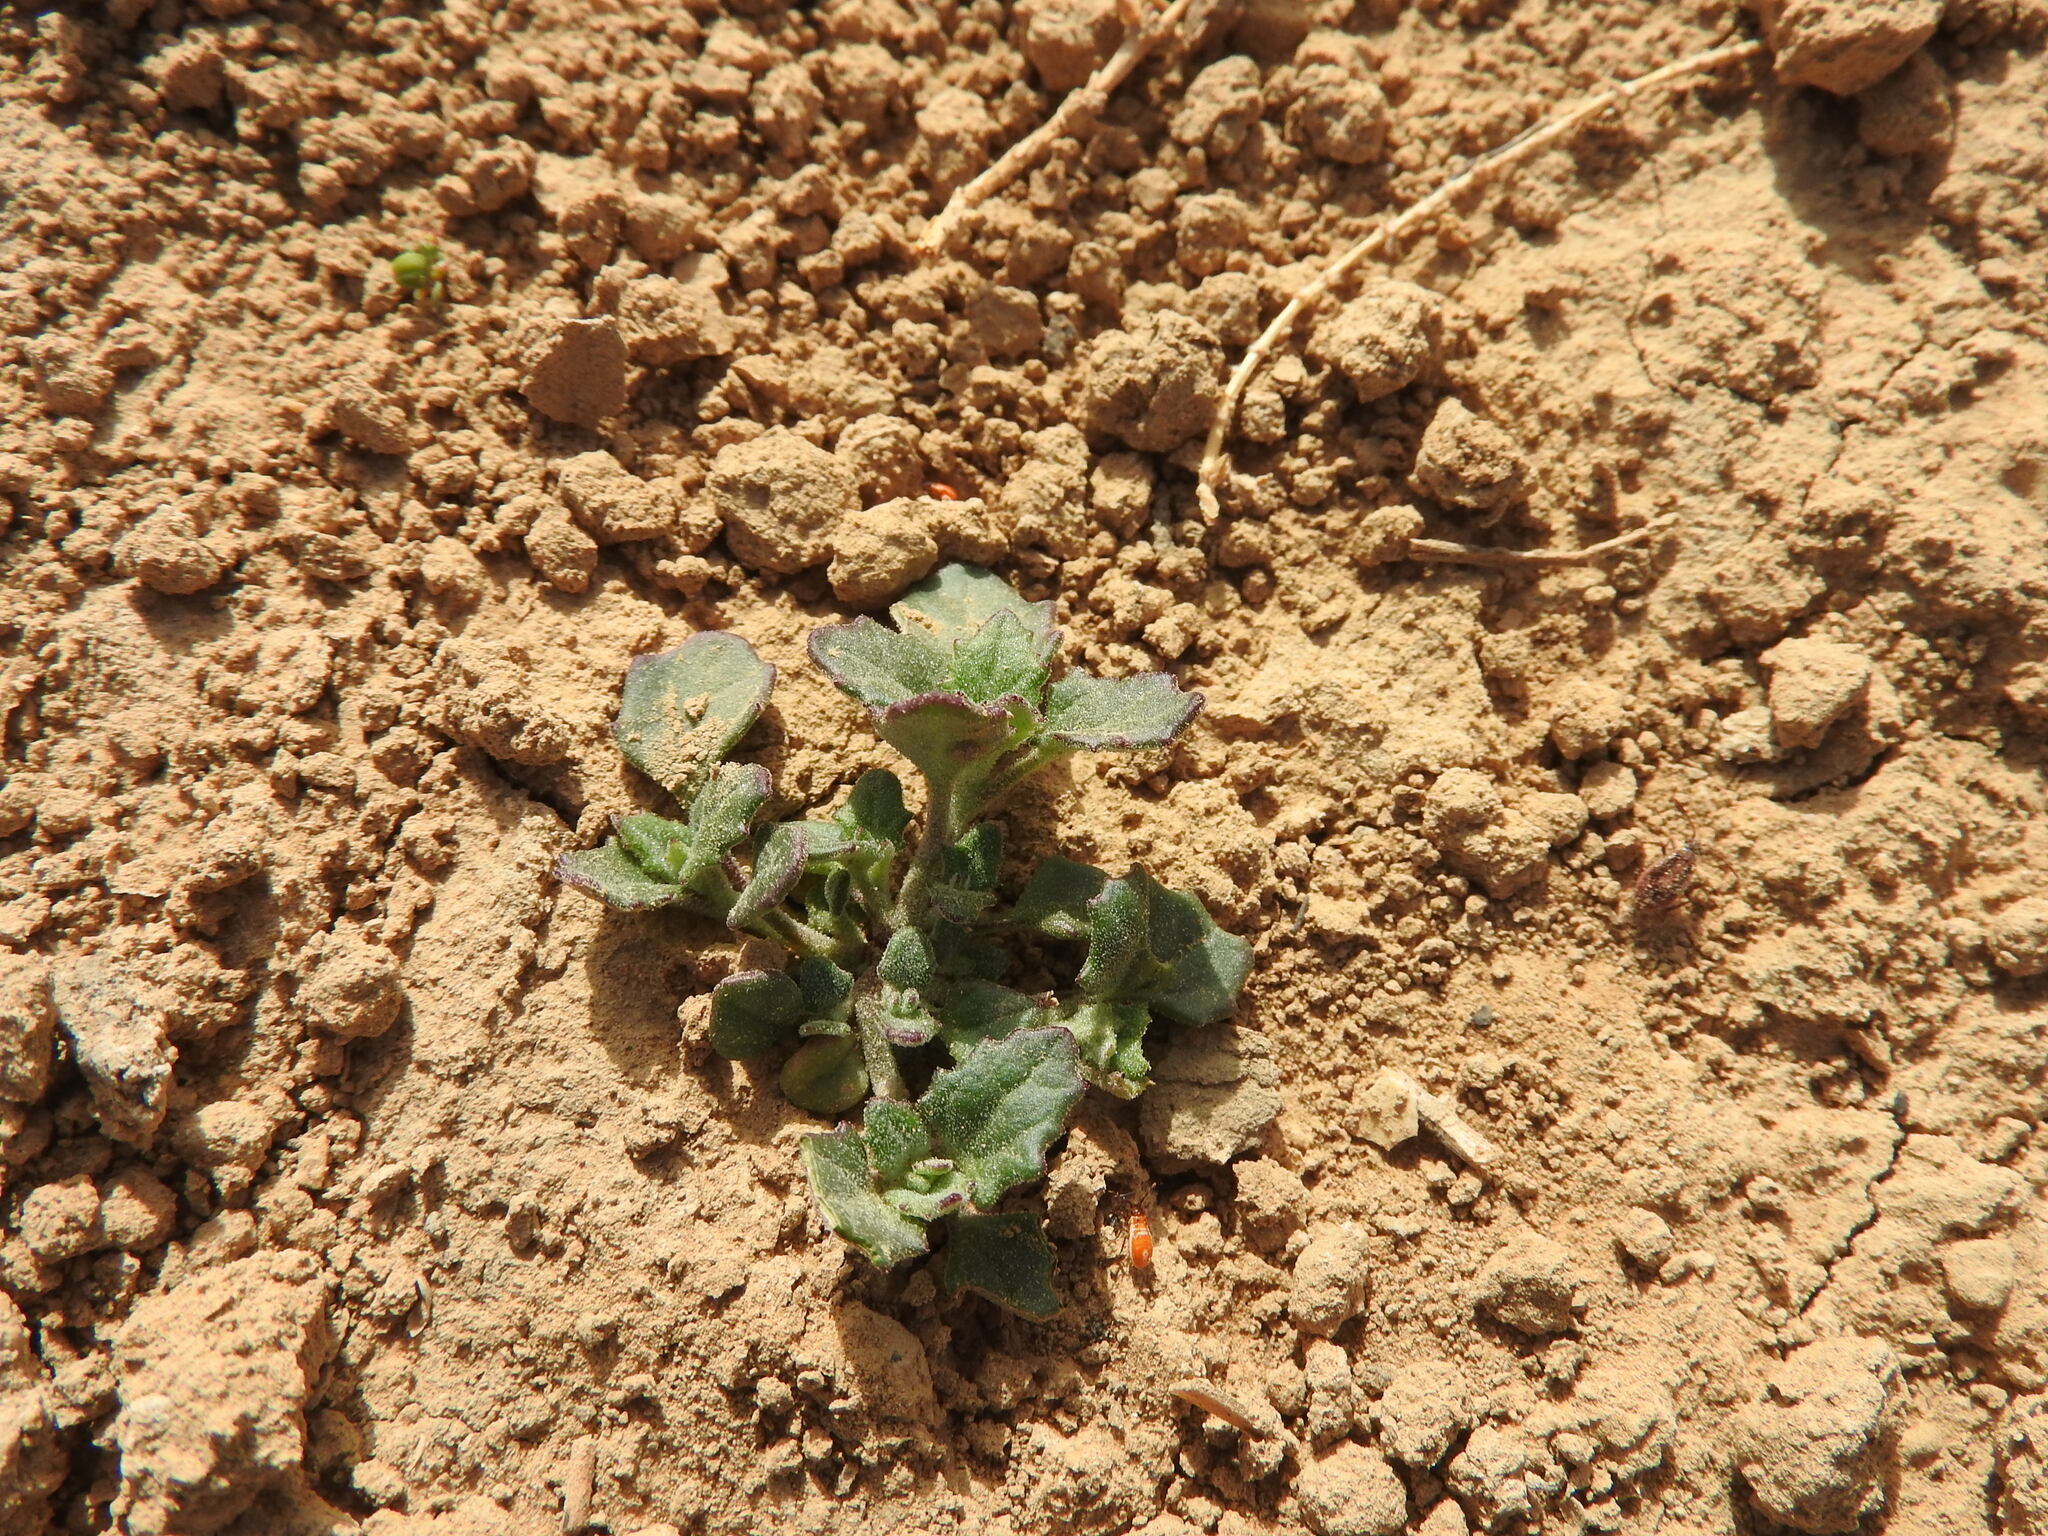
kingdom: Plantae
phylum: Tracheophyta
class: Magnoliopsida
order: Caryophyllales
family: Amaranthaceae
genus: Chenopodiastrum
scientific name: Chenopodiastrum murale
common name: Sowbane
